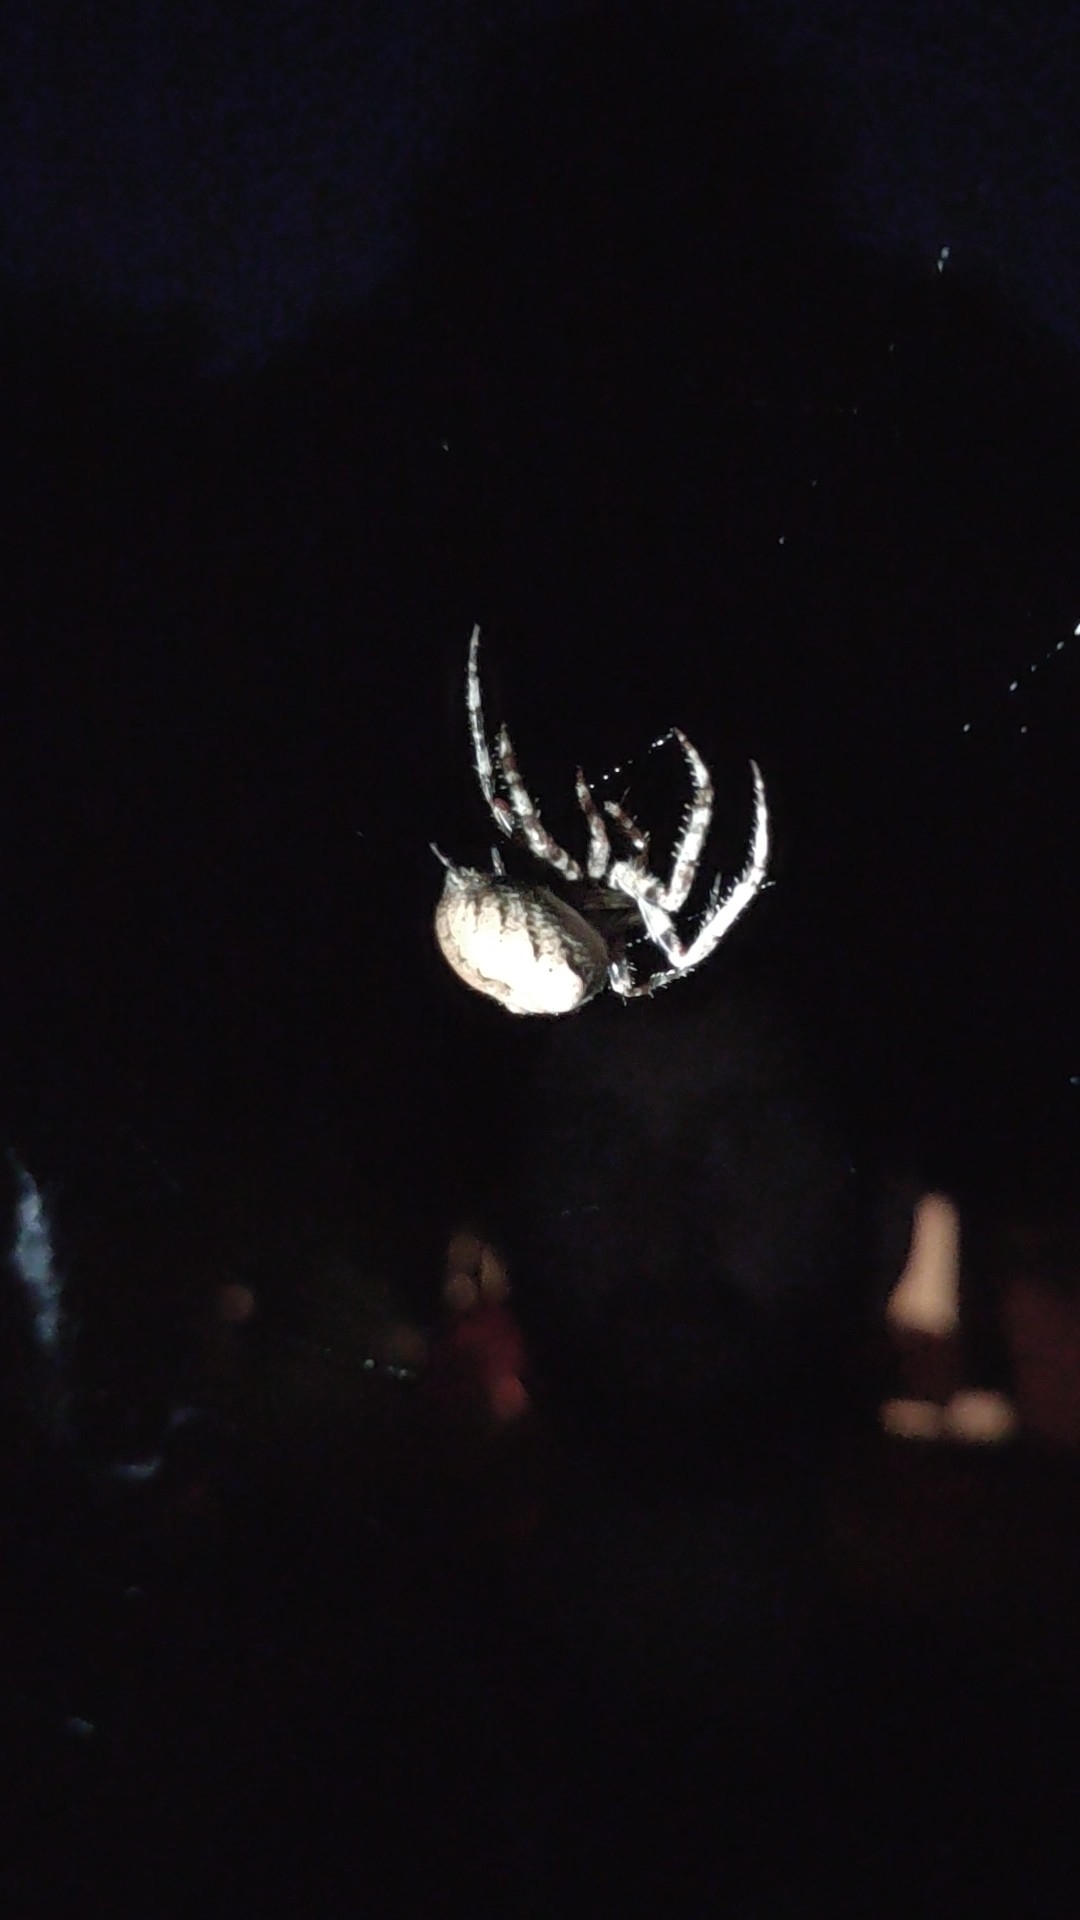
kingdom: Animalia
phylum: Arthropoda
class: Arachnida
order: Araneae
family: Araneidae
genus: Araneus
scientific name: Araneus angulatus
